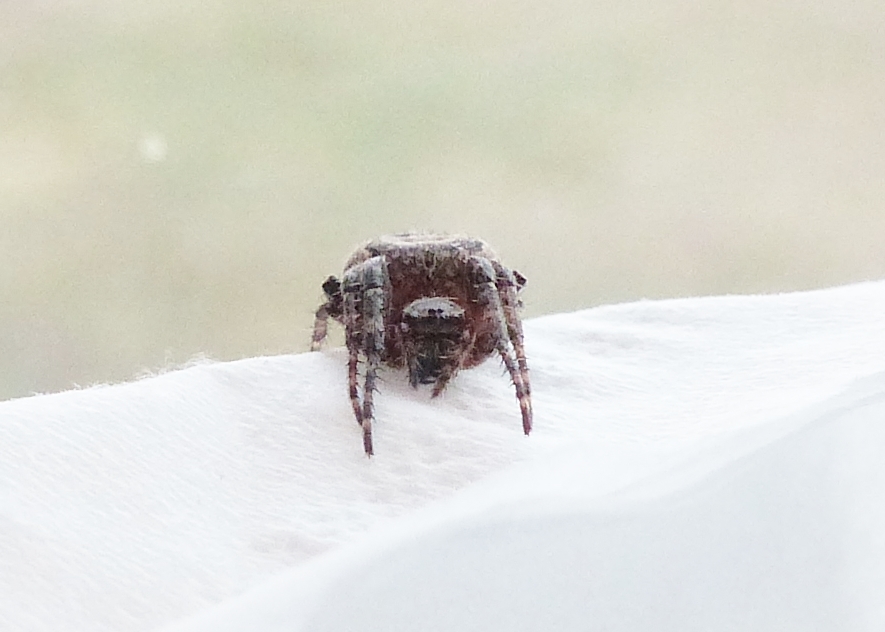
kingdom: Animalia
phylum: Arthropoda
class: Arachnida
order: Araneae
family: Araneidae
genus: Larinioides
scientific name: Larinioides patagiatus
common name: Ornamental orbweaver
